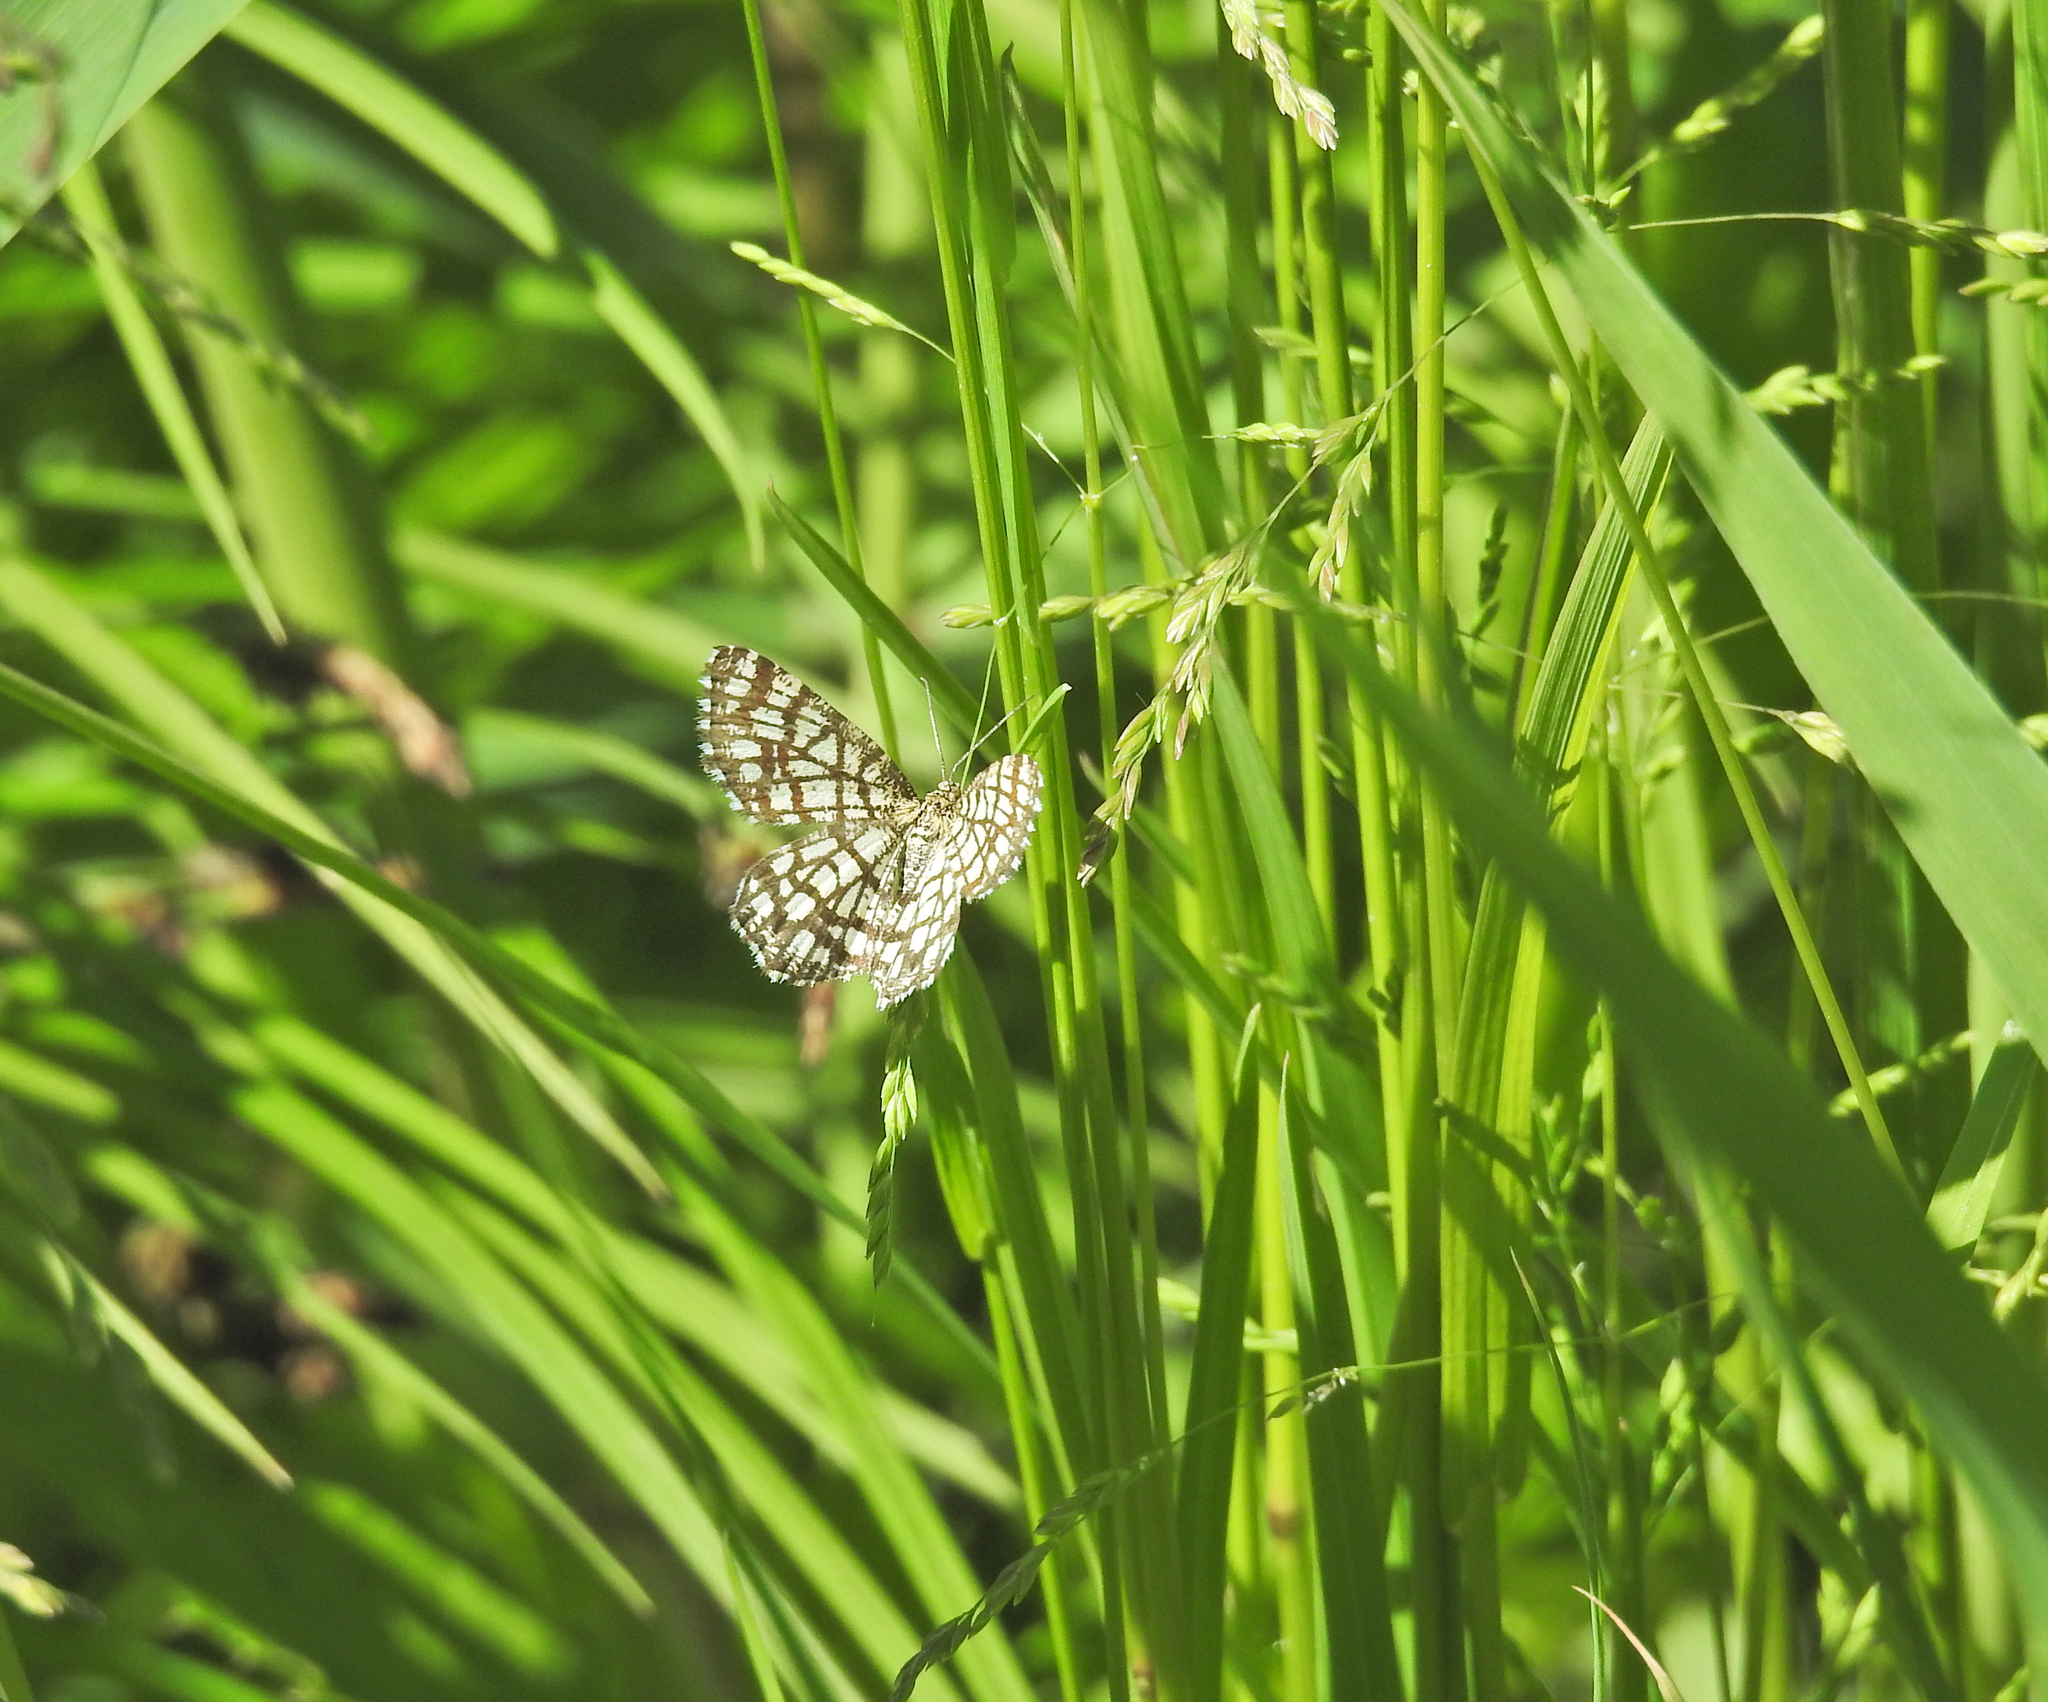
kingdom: Animalia
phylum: Arthropoda
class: Insecta
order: Lepidoptera
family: Geometridae
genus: Chiasmia
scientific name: Chiasmia clathrata
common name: Latticed heath
